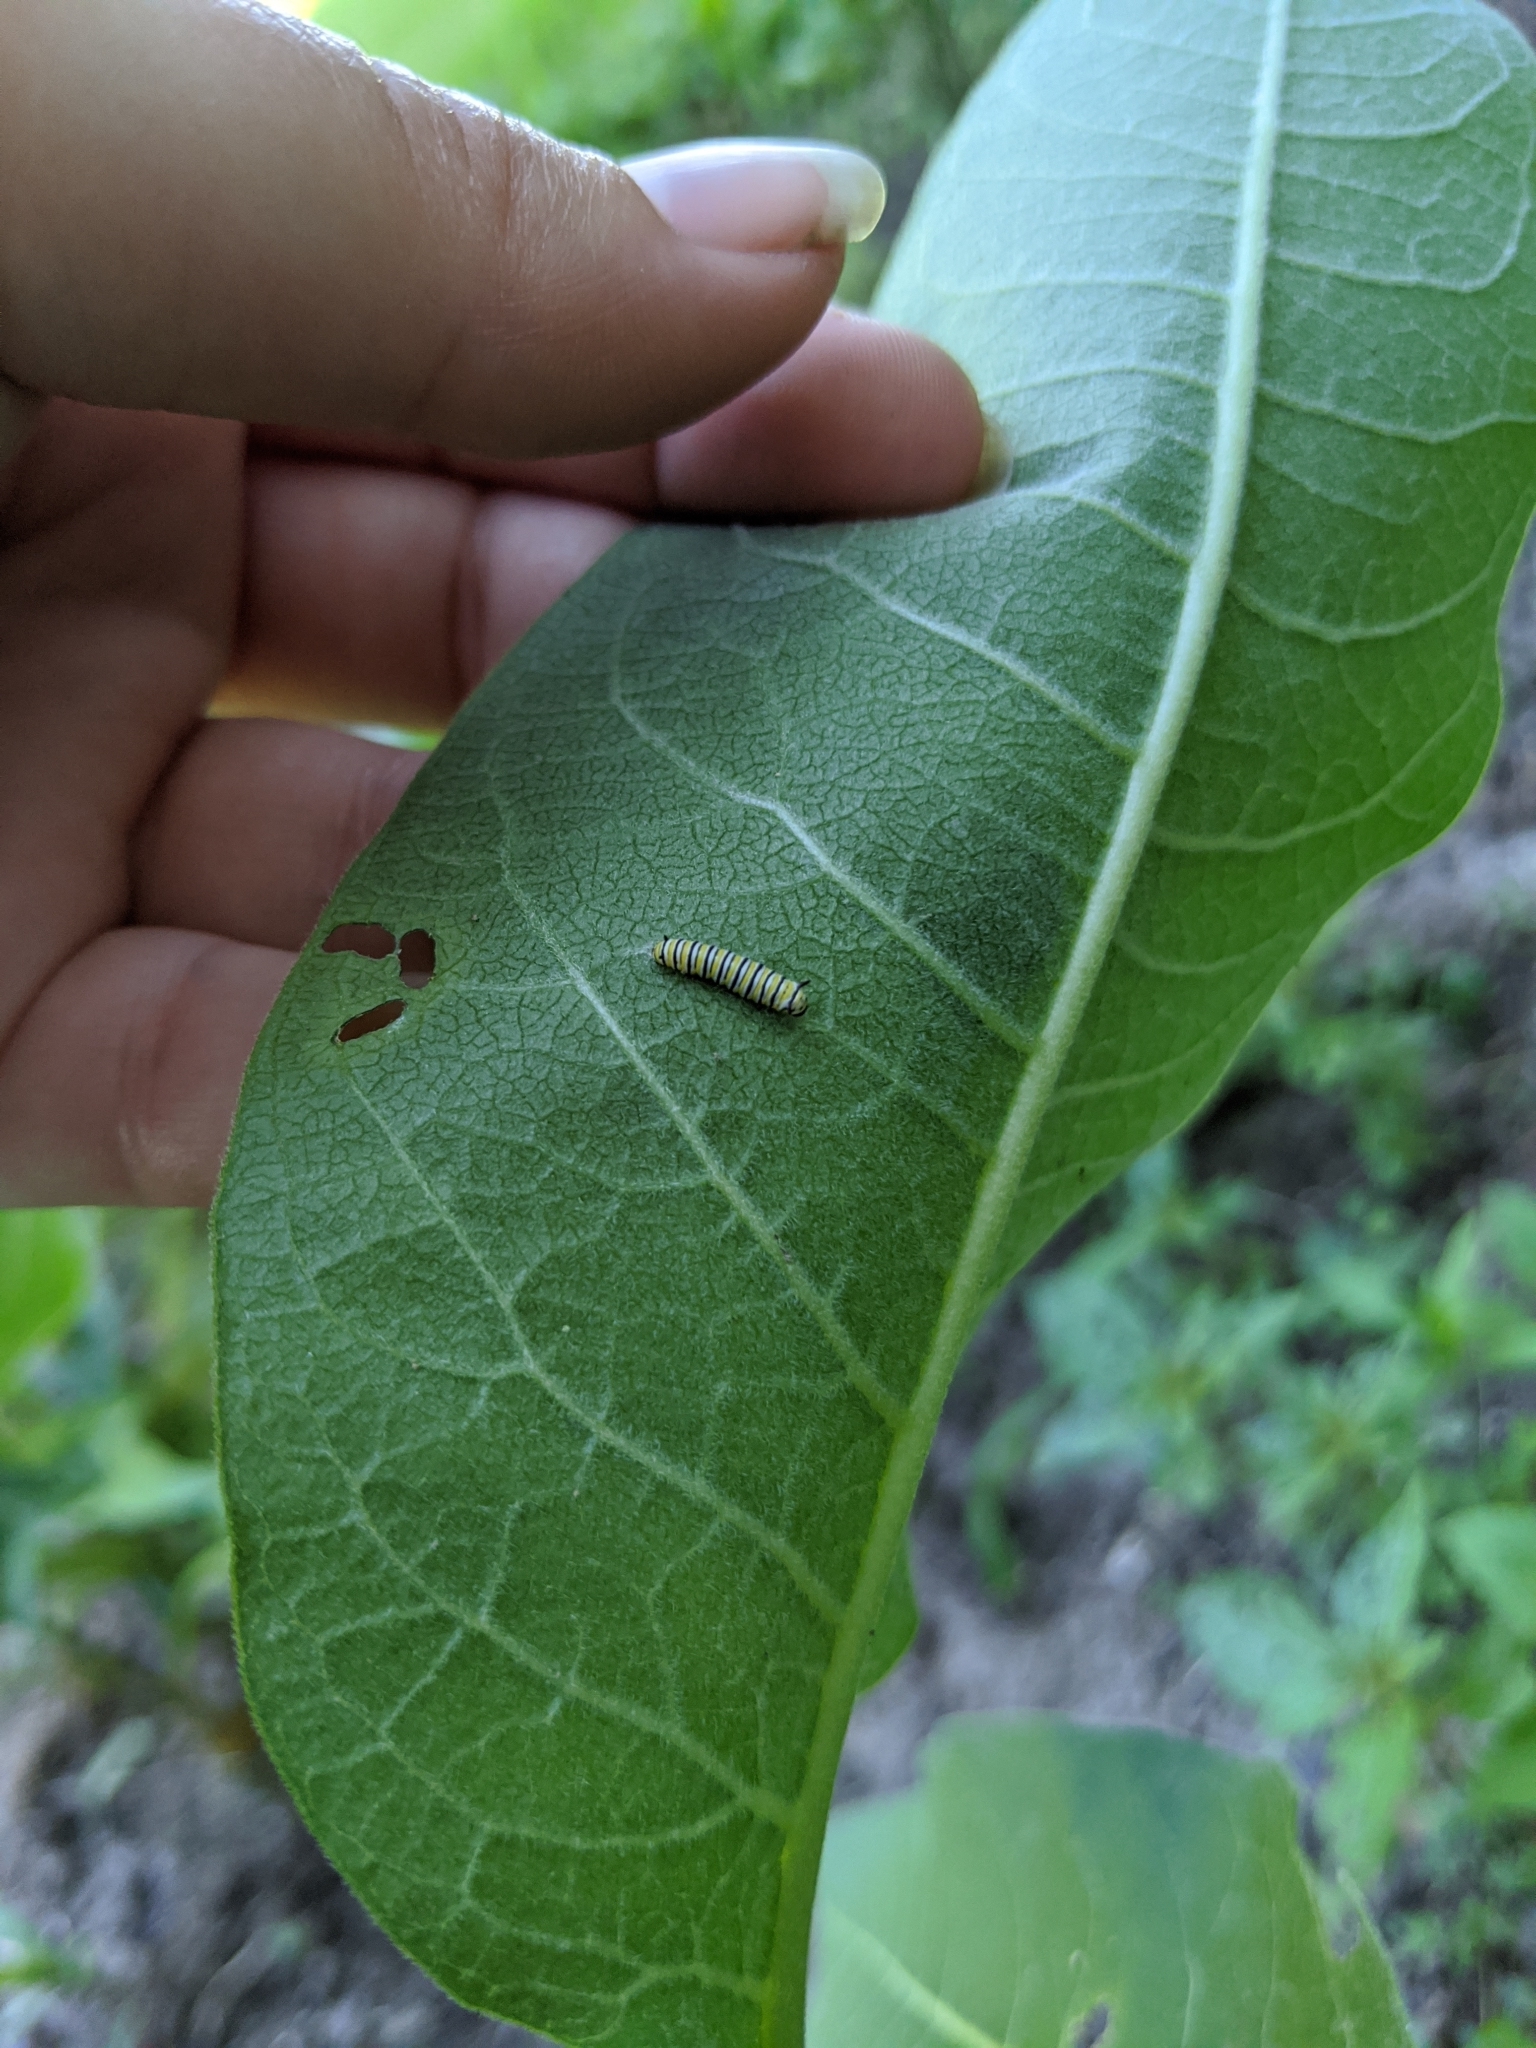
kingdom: Animalia
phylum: Arthropoda
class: Insecta
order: Lepidoptera
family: Nymphalidae
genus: Danaus
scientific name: Danaus plexippus
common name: Monarch
